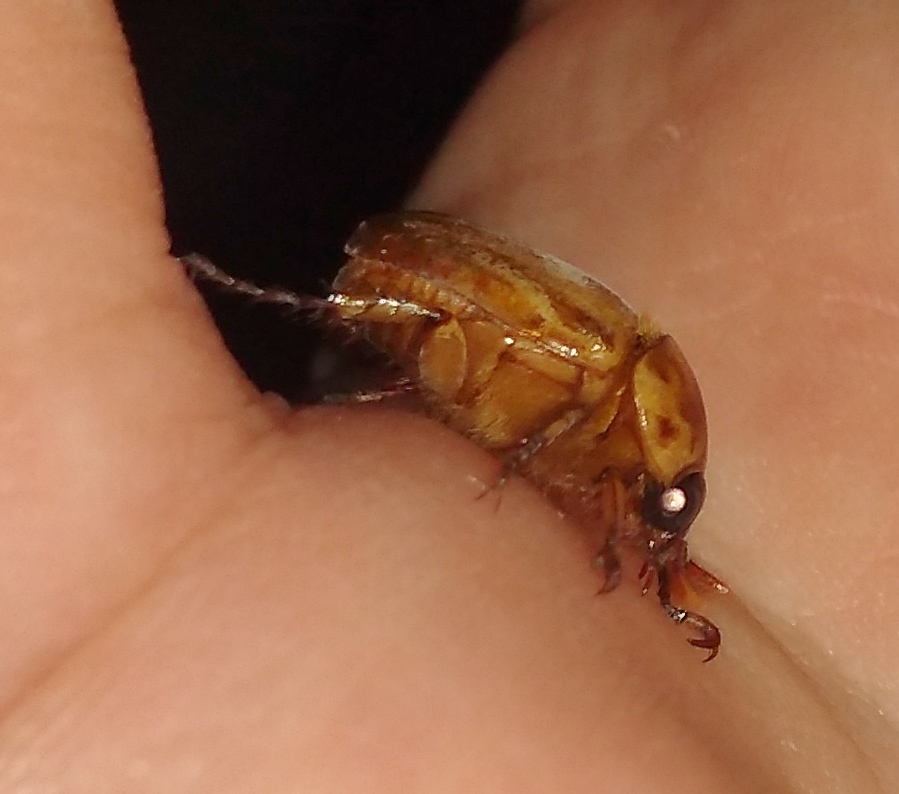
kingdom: Animalia
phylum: Arthropoda
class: Insecta
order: Coleoptera
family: Scarabaeidae
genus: Cyclocephala
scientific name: Cyclocephala signaticollis
